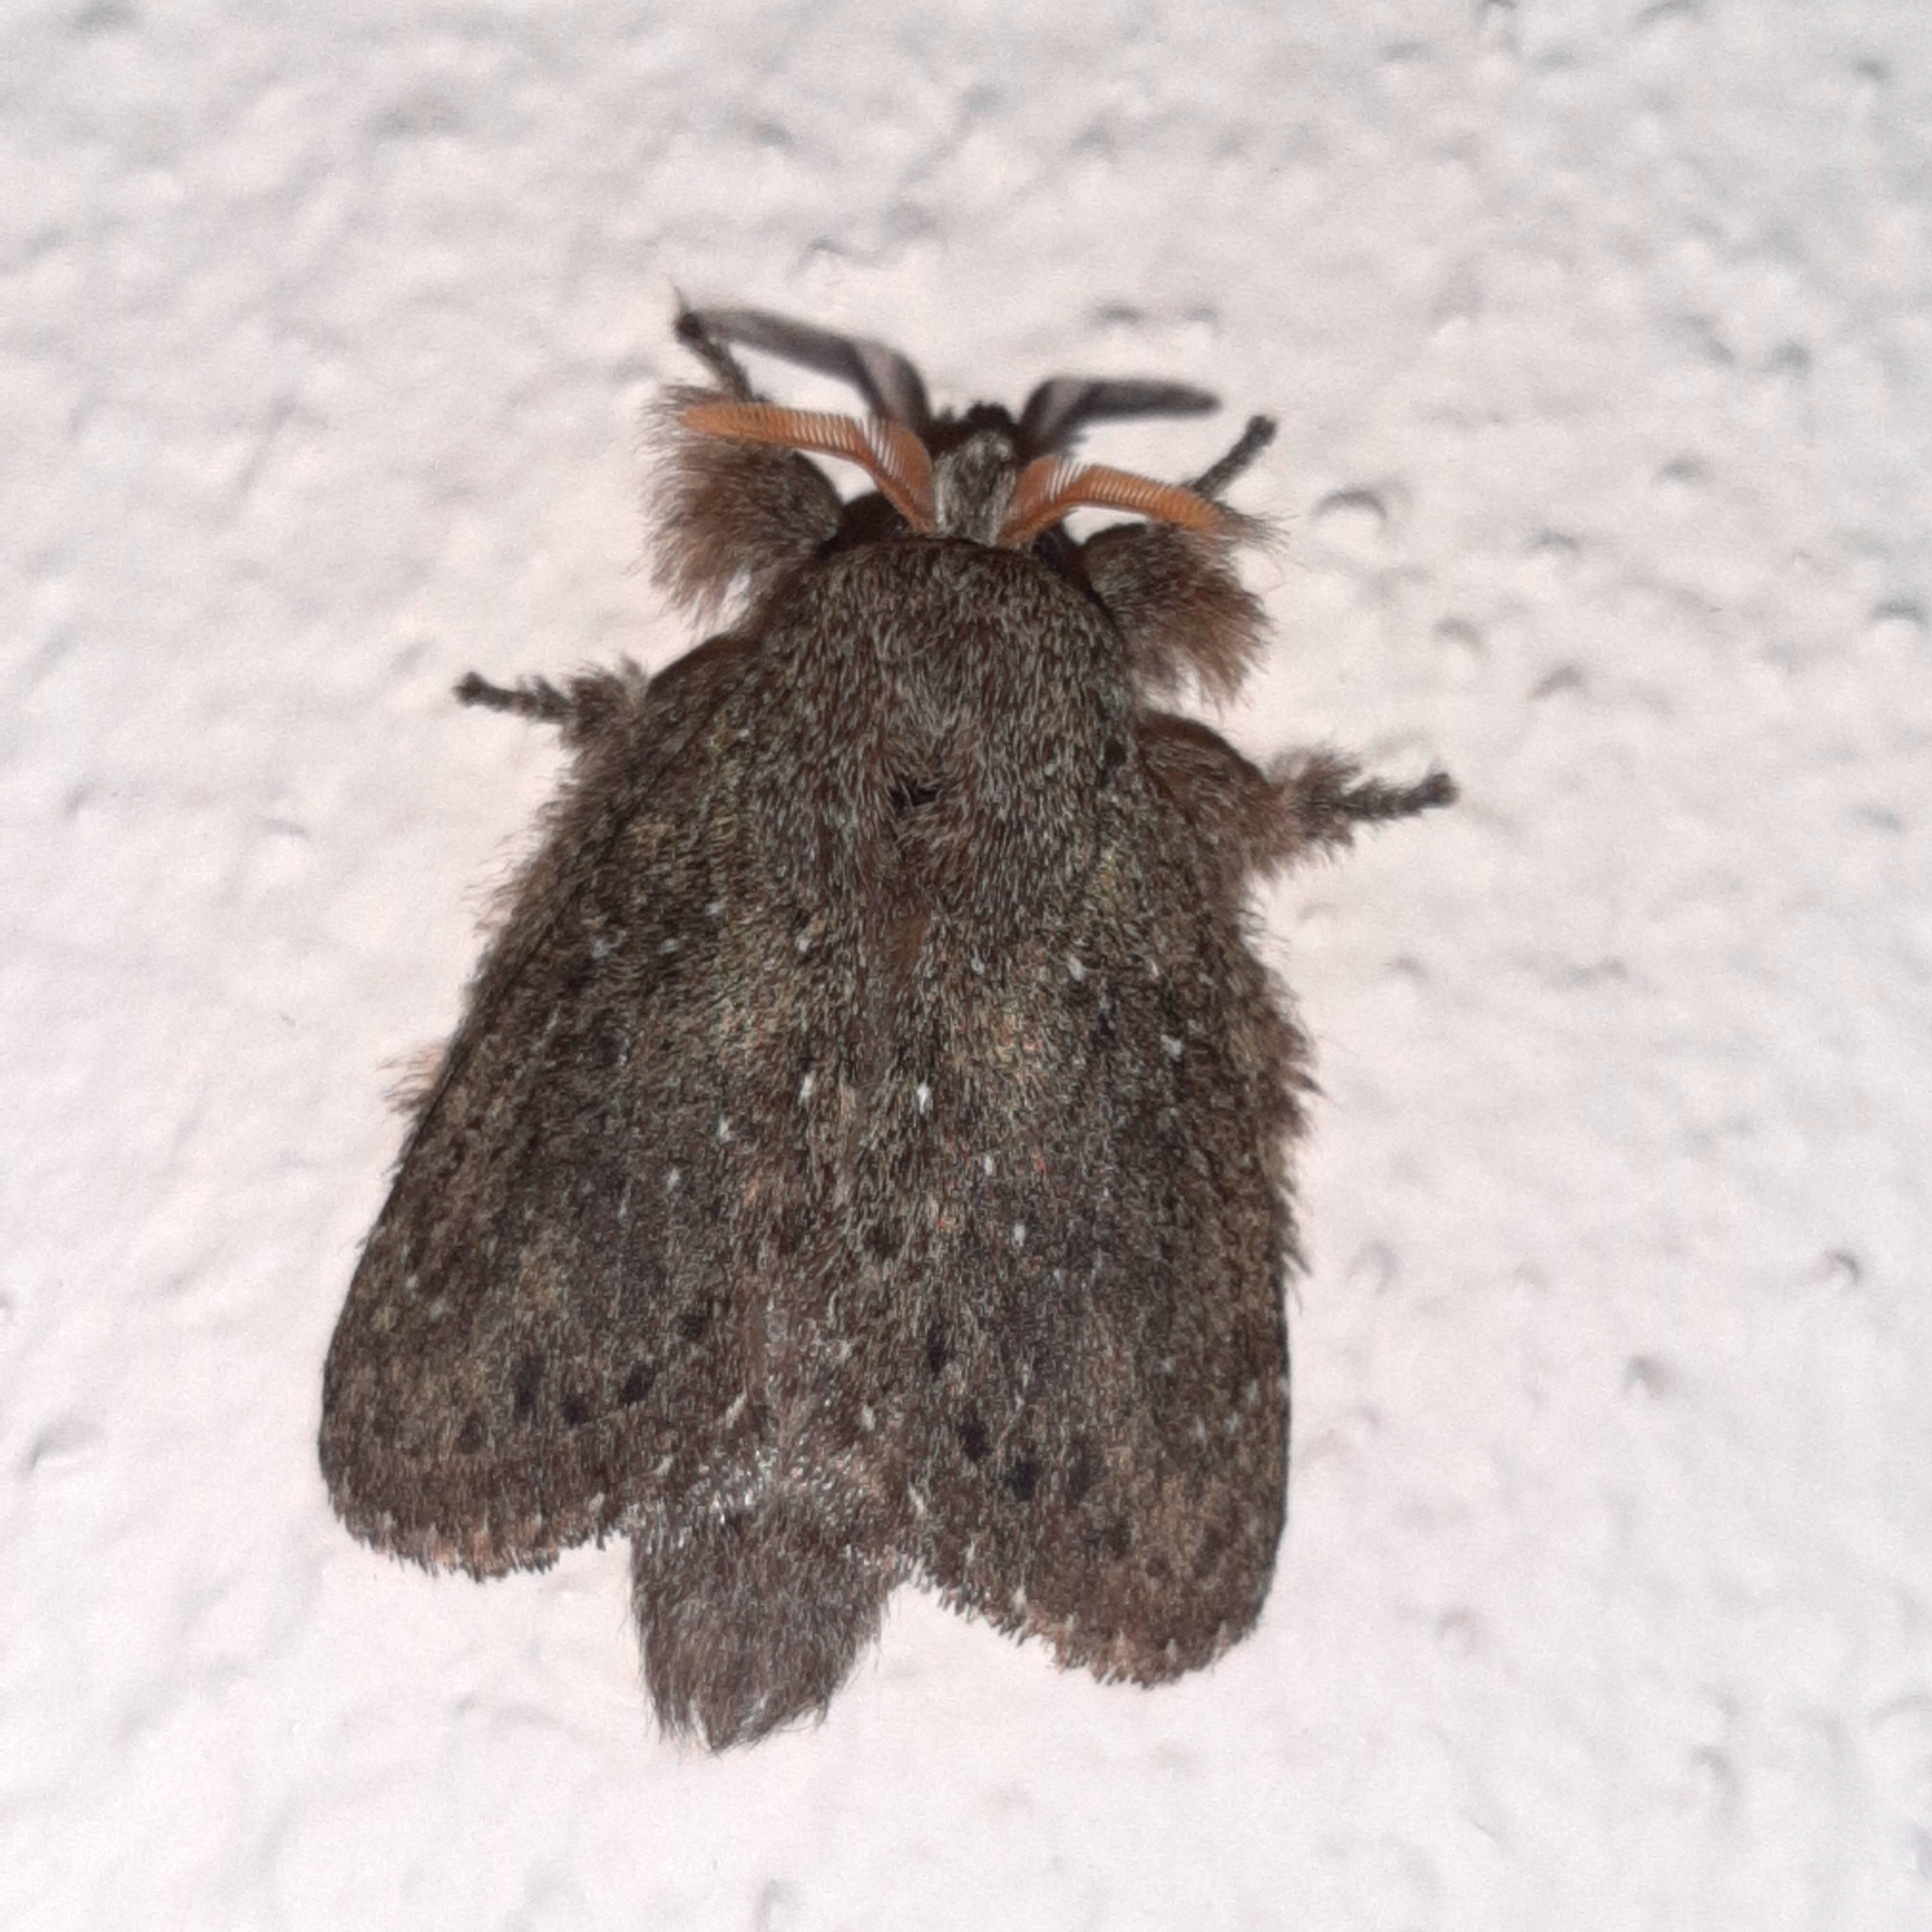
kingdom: Animalia
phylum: Arthropoda
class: Insecta
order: Lepidoptera
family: Lasiocampidae
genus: Euglyphis
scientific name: Euglyphis melancholica
